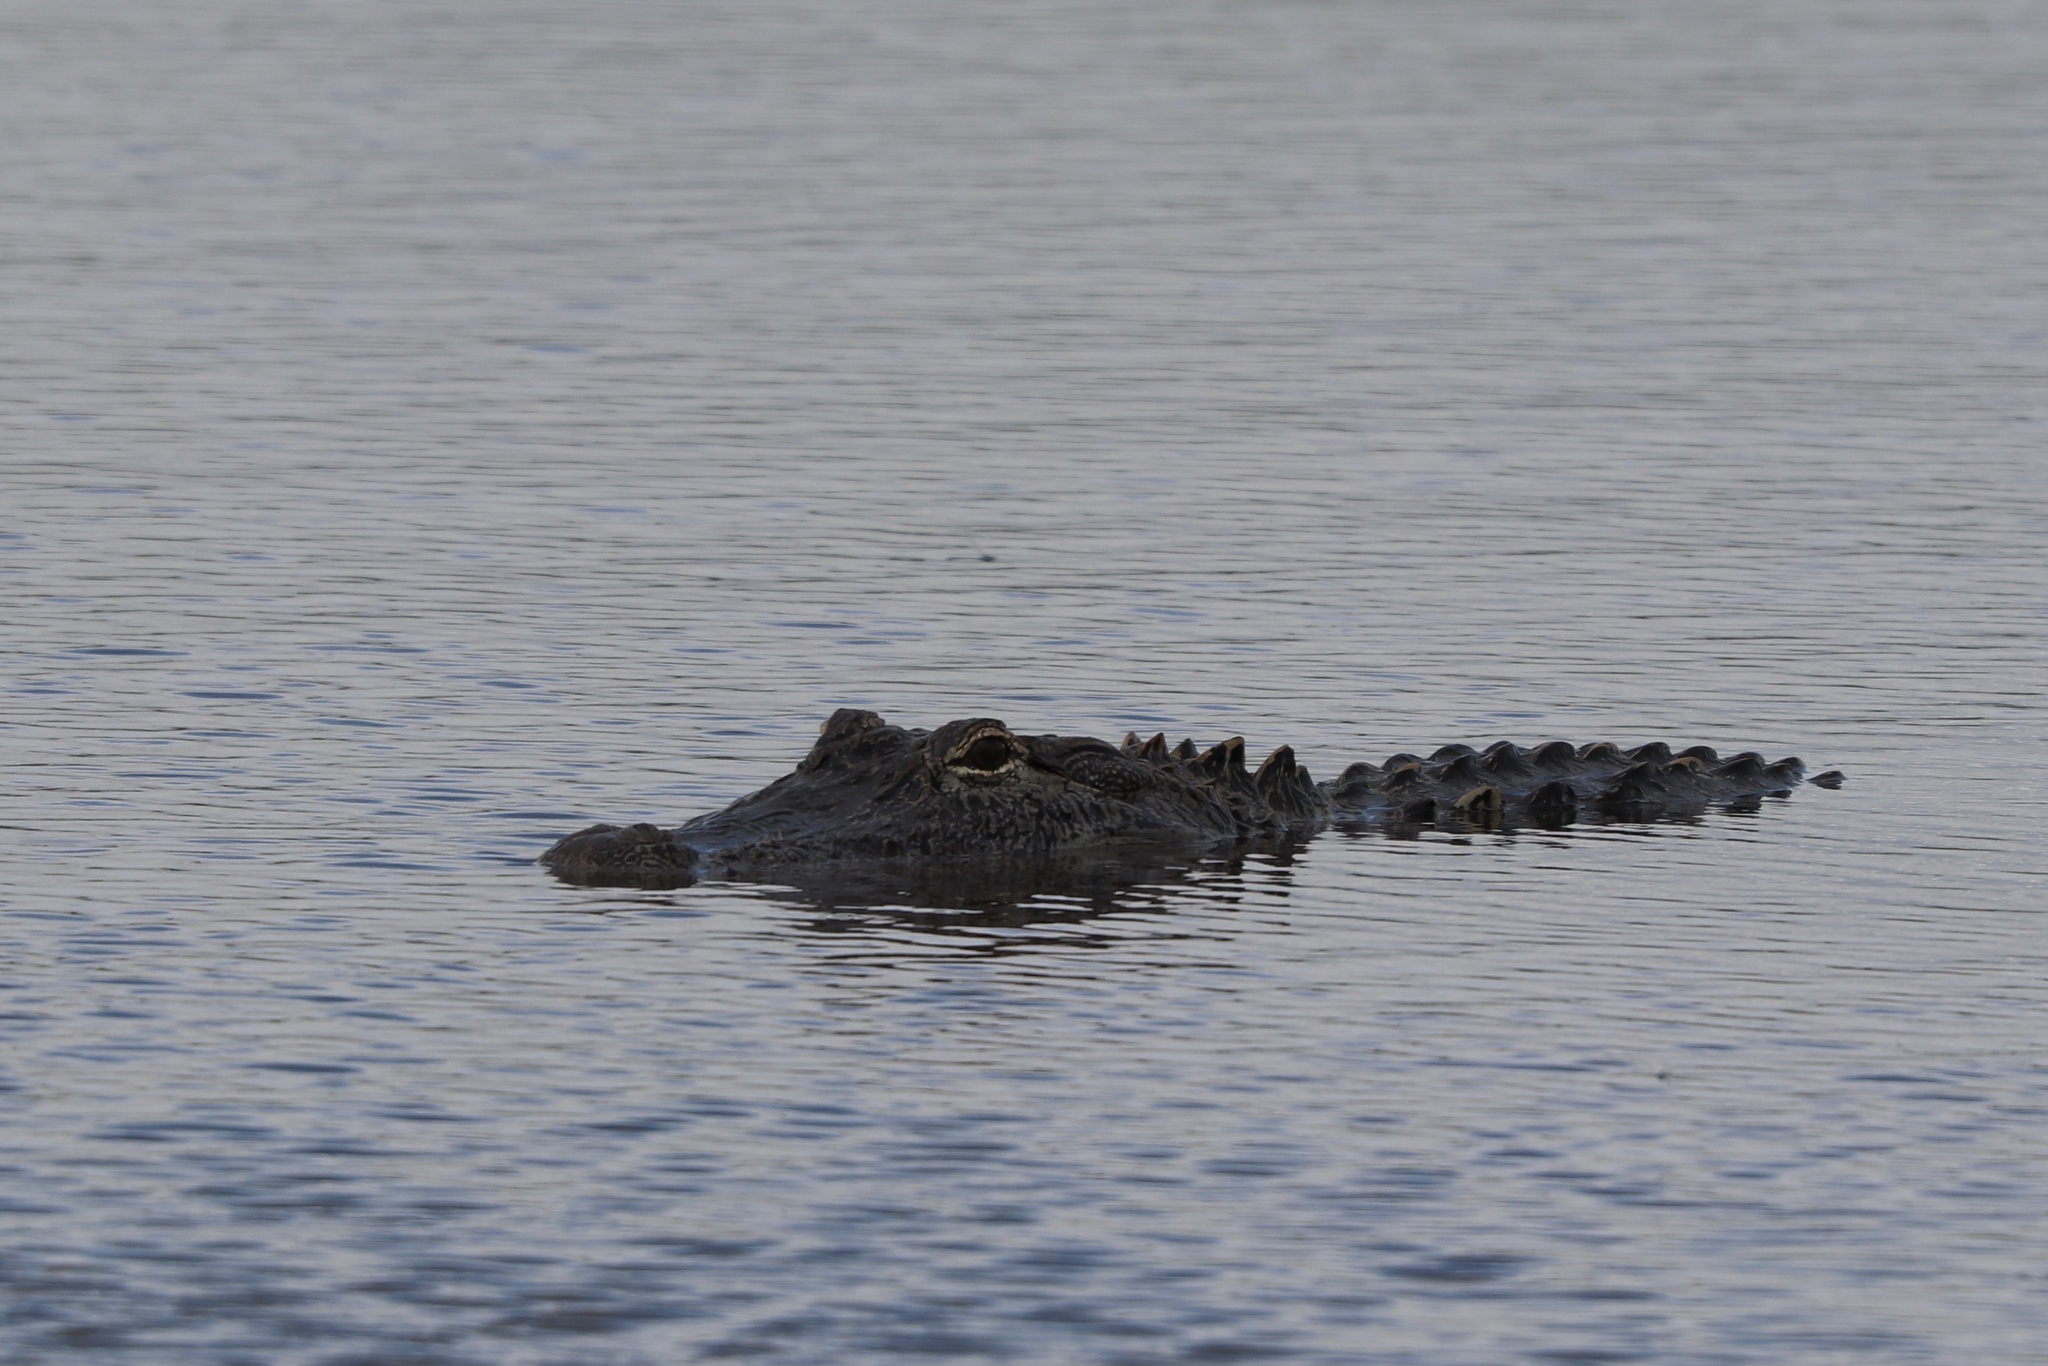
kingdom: Animalia
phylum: Chordata
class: Crocodylia
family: Alligatoridae
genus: Alligator
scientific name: Alligator mississippiensis
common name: American alligator
